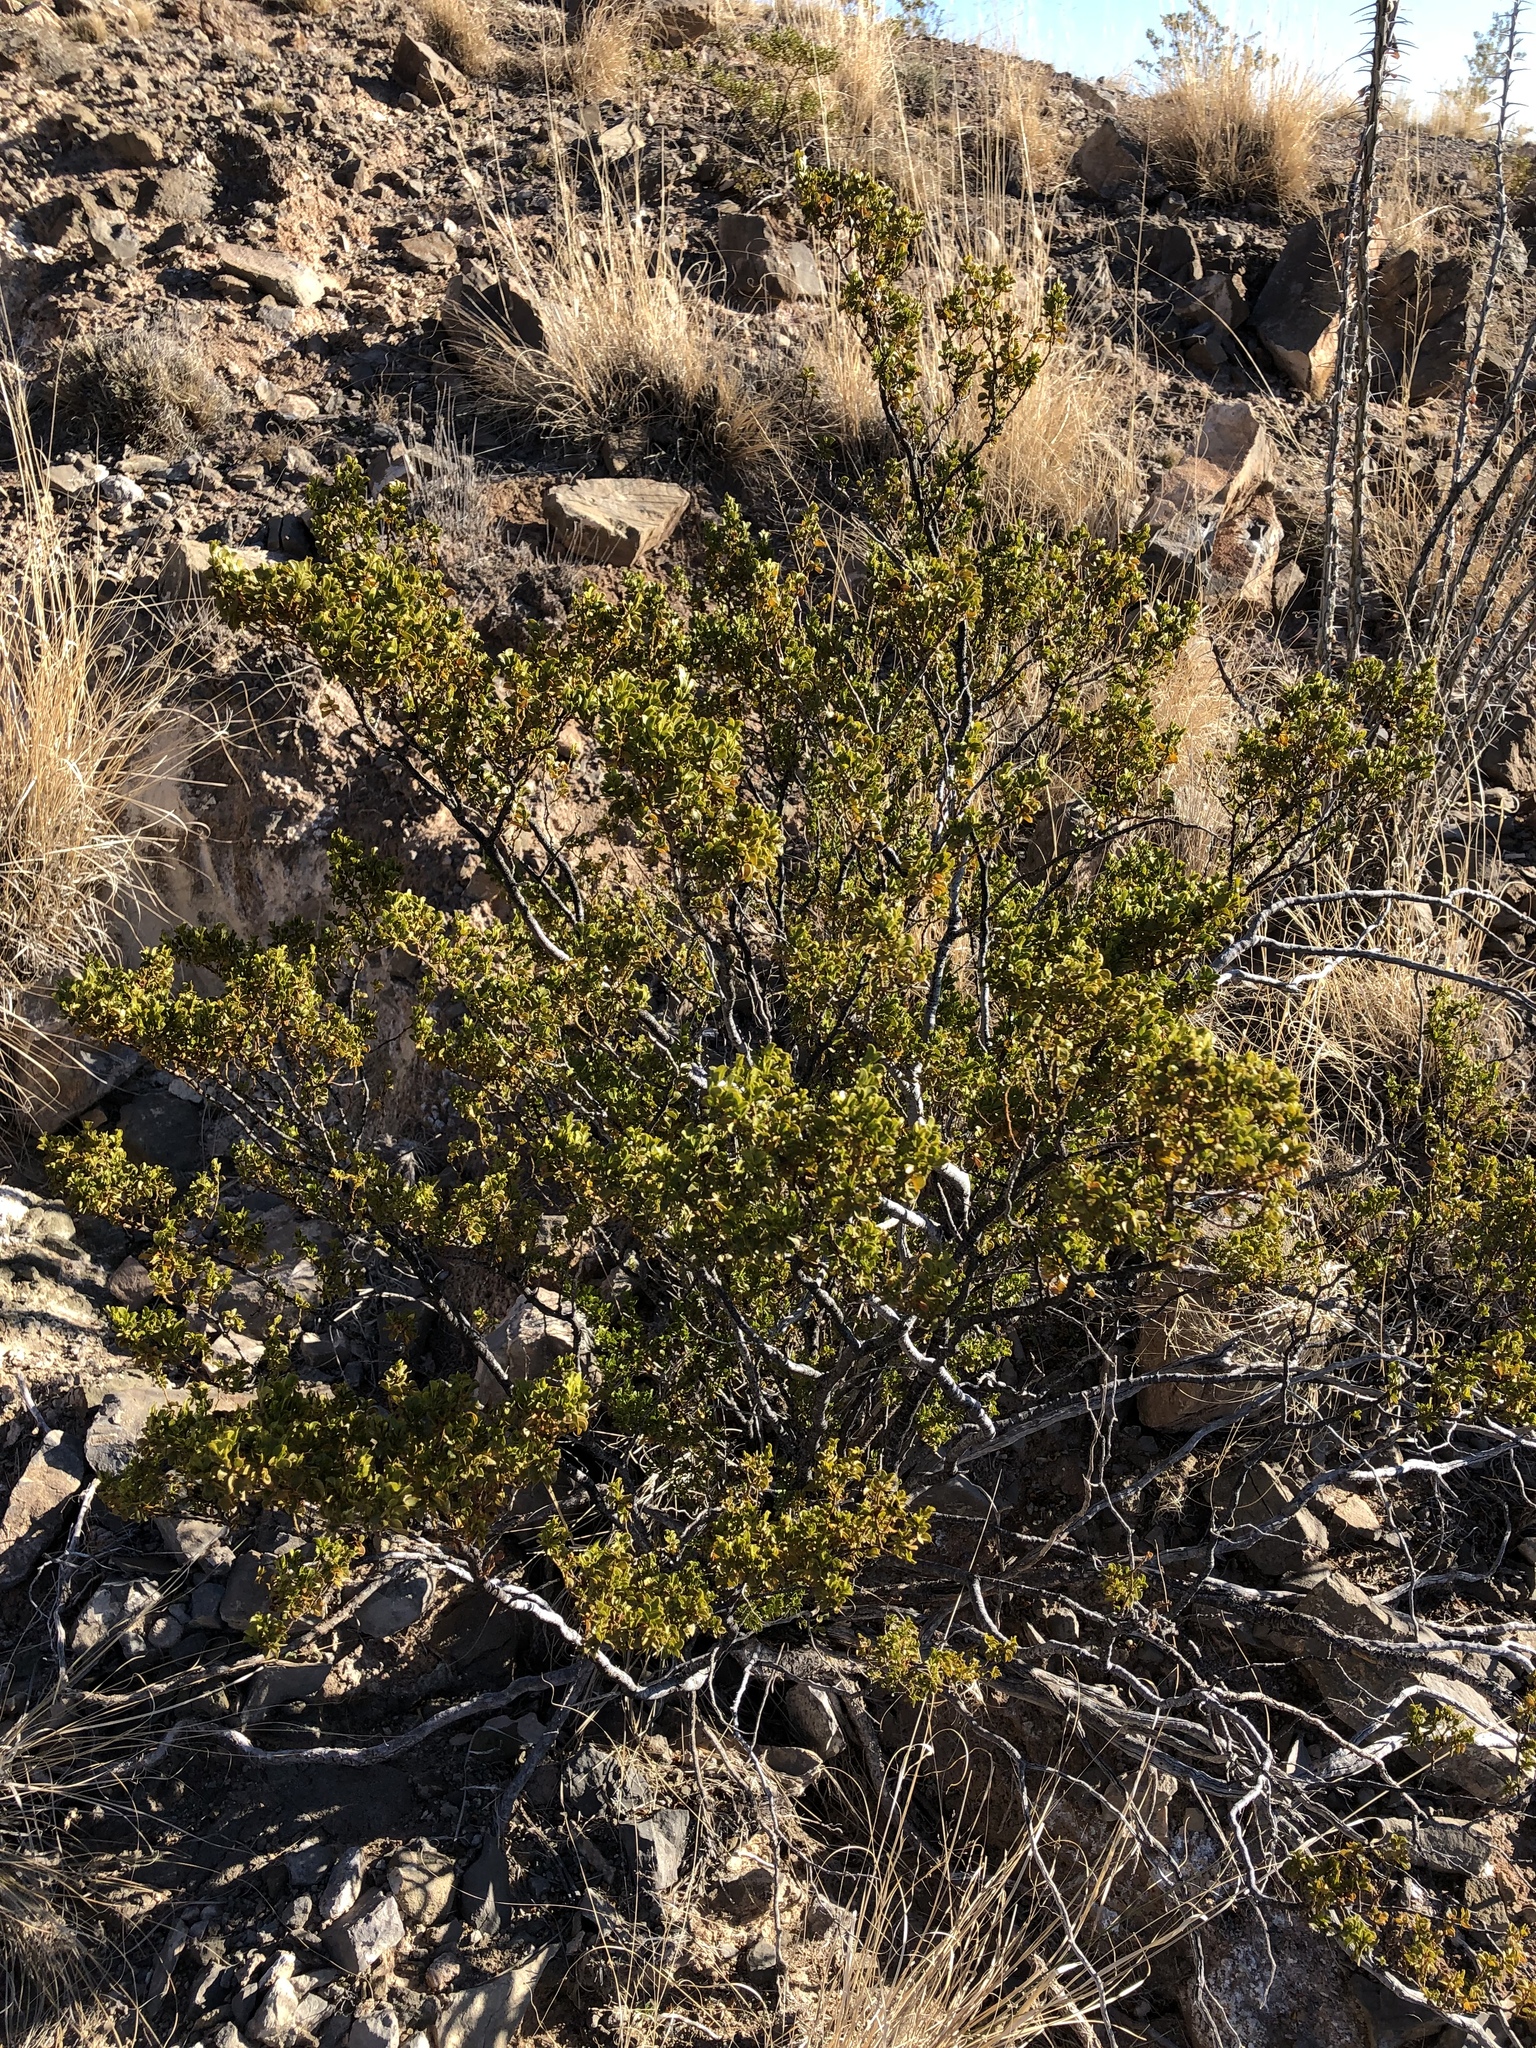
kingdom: Plantae
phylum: Tracheophyta
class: Magnoliopsida
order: Zygophyllales
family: Zygophyllaceae
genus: Larrea
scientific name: Larrea tridentata
